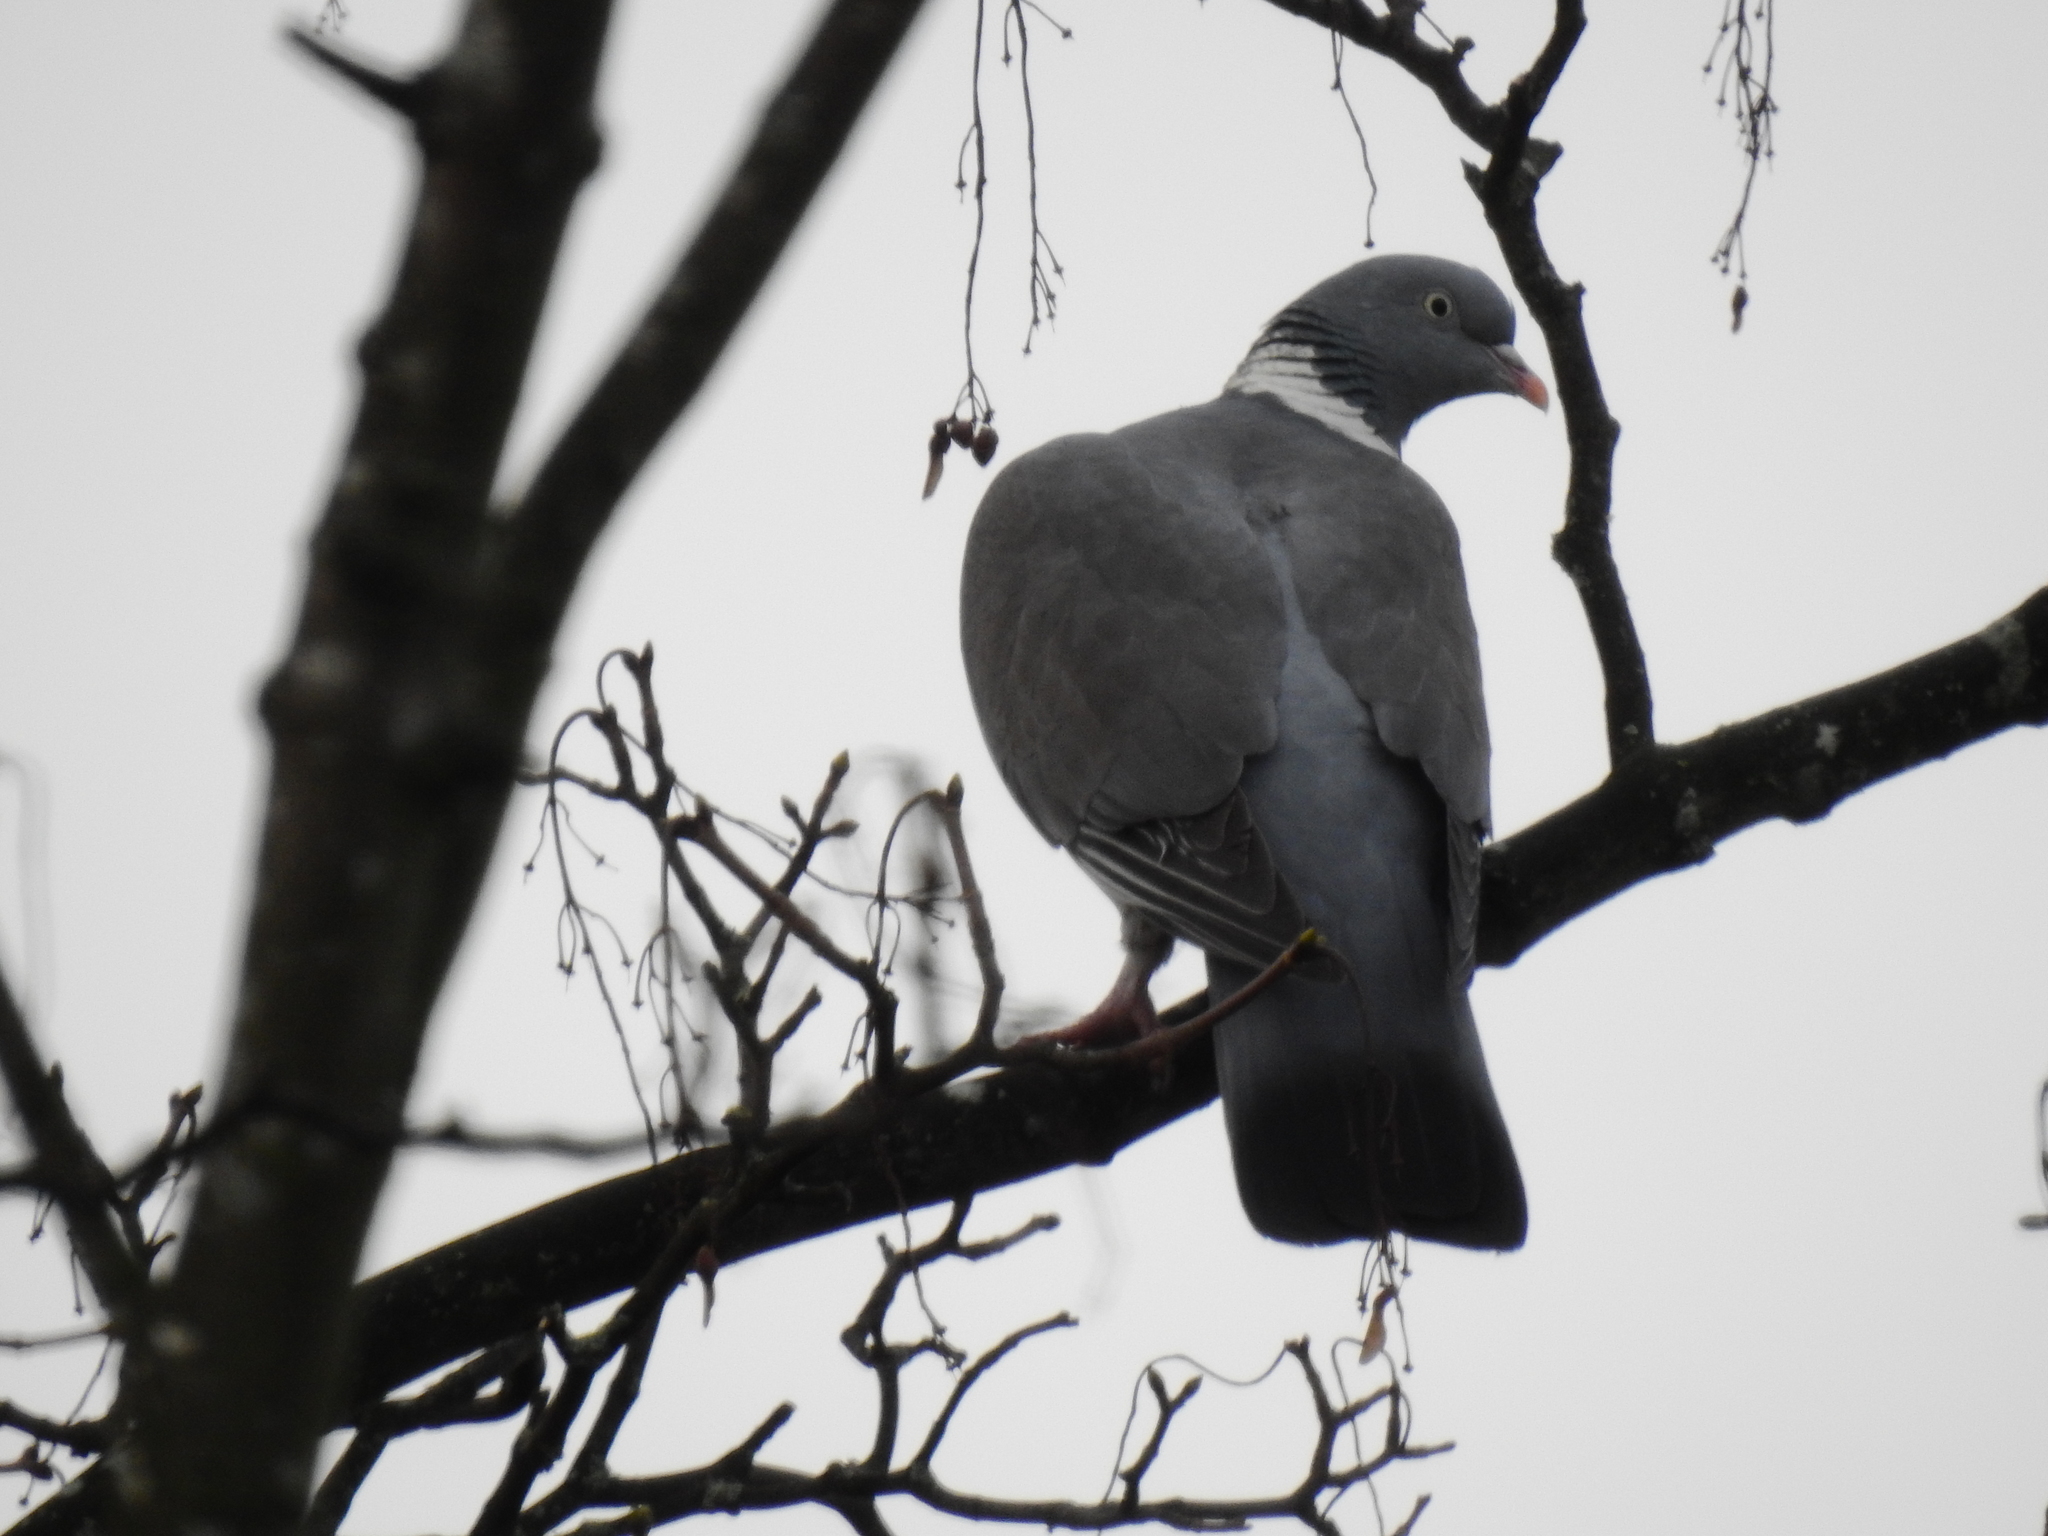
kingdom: Animalia
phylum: Chordata
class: Aves
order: Columbiformes
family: Columbidae
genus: Columba
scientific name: Columba palumbus
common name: Common wood pigeon
